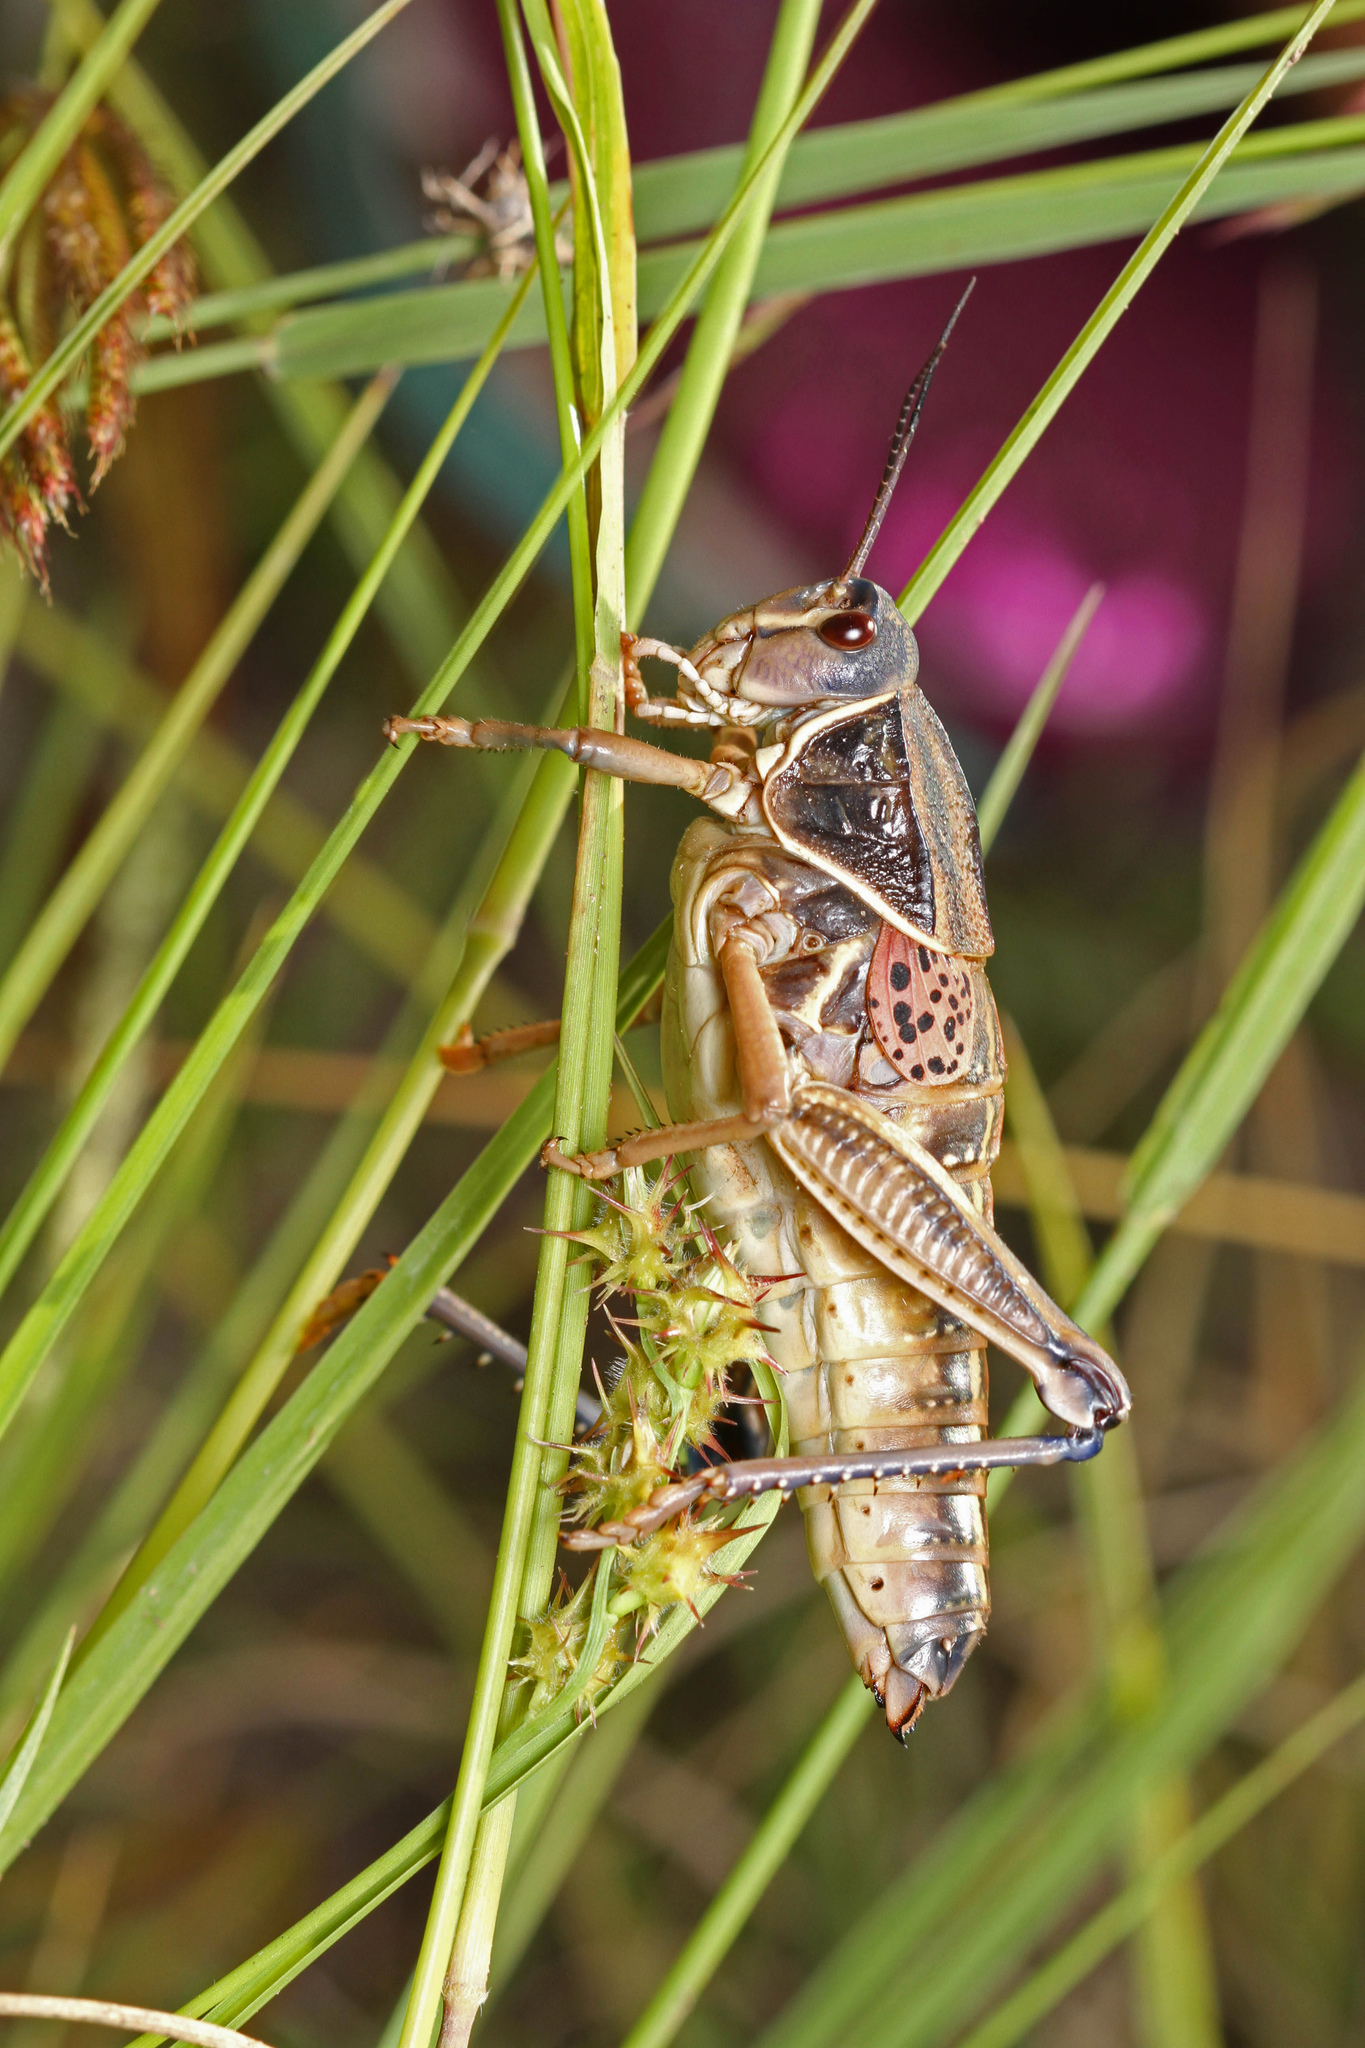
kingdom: Animalia
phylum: Arthropoda
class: Insecta
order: Orthoptera
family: Romaleidae
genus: Brachystola
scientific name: Brachystola magna
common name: Plains lubber grasshopper
